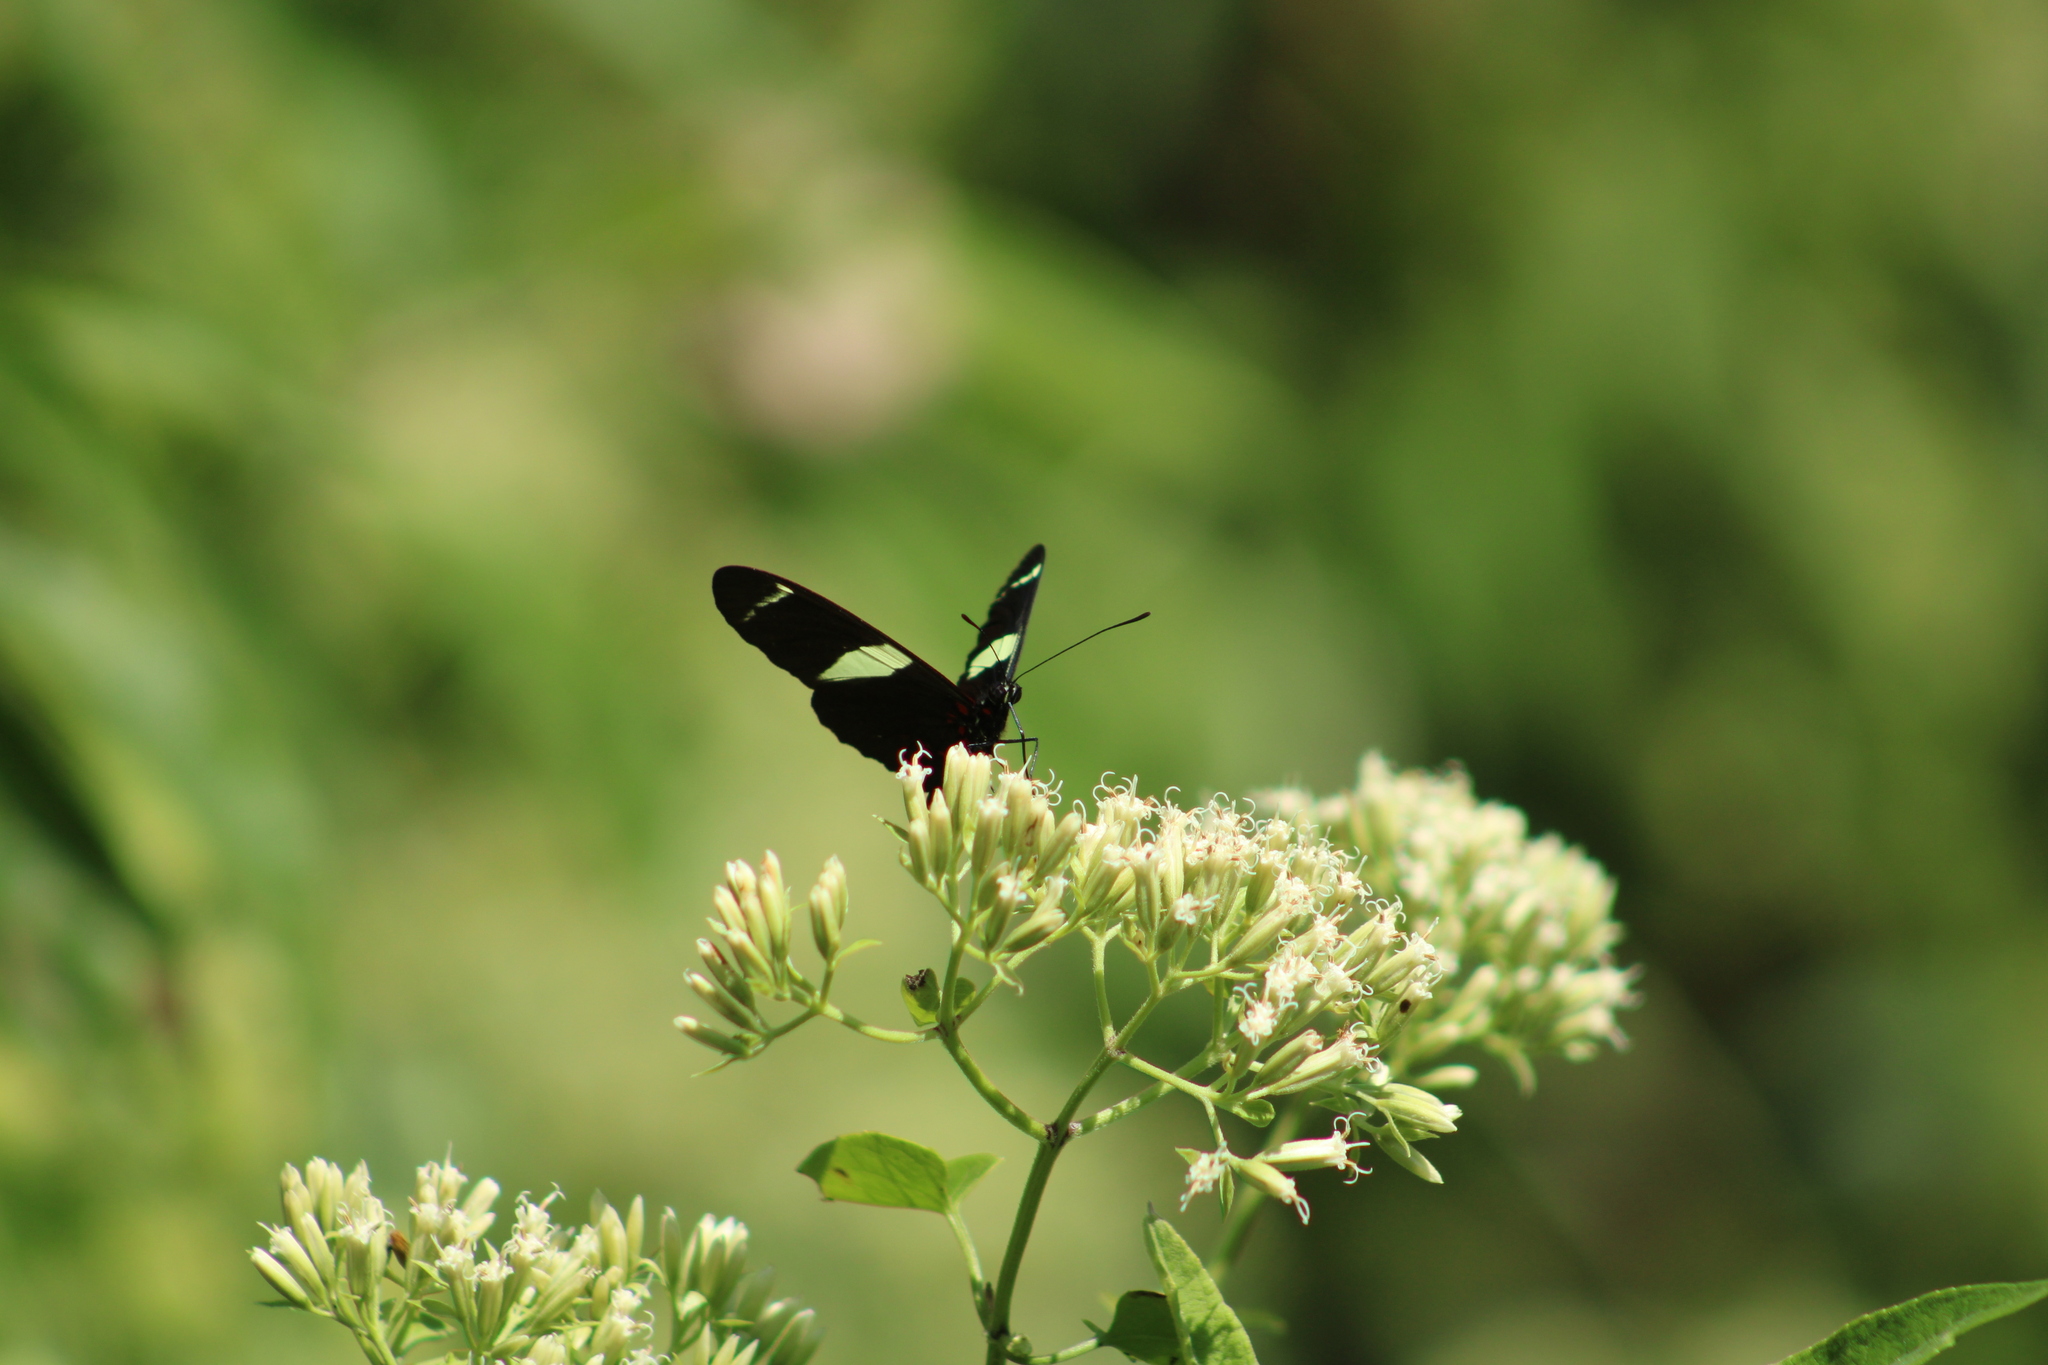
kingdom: Animalia
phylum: Arthropoda
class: Insecta
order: Lepidoptera
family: Nymphalidae
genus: Heliconius
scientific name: Heliconius sara
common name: Sara longwing
